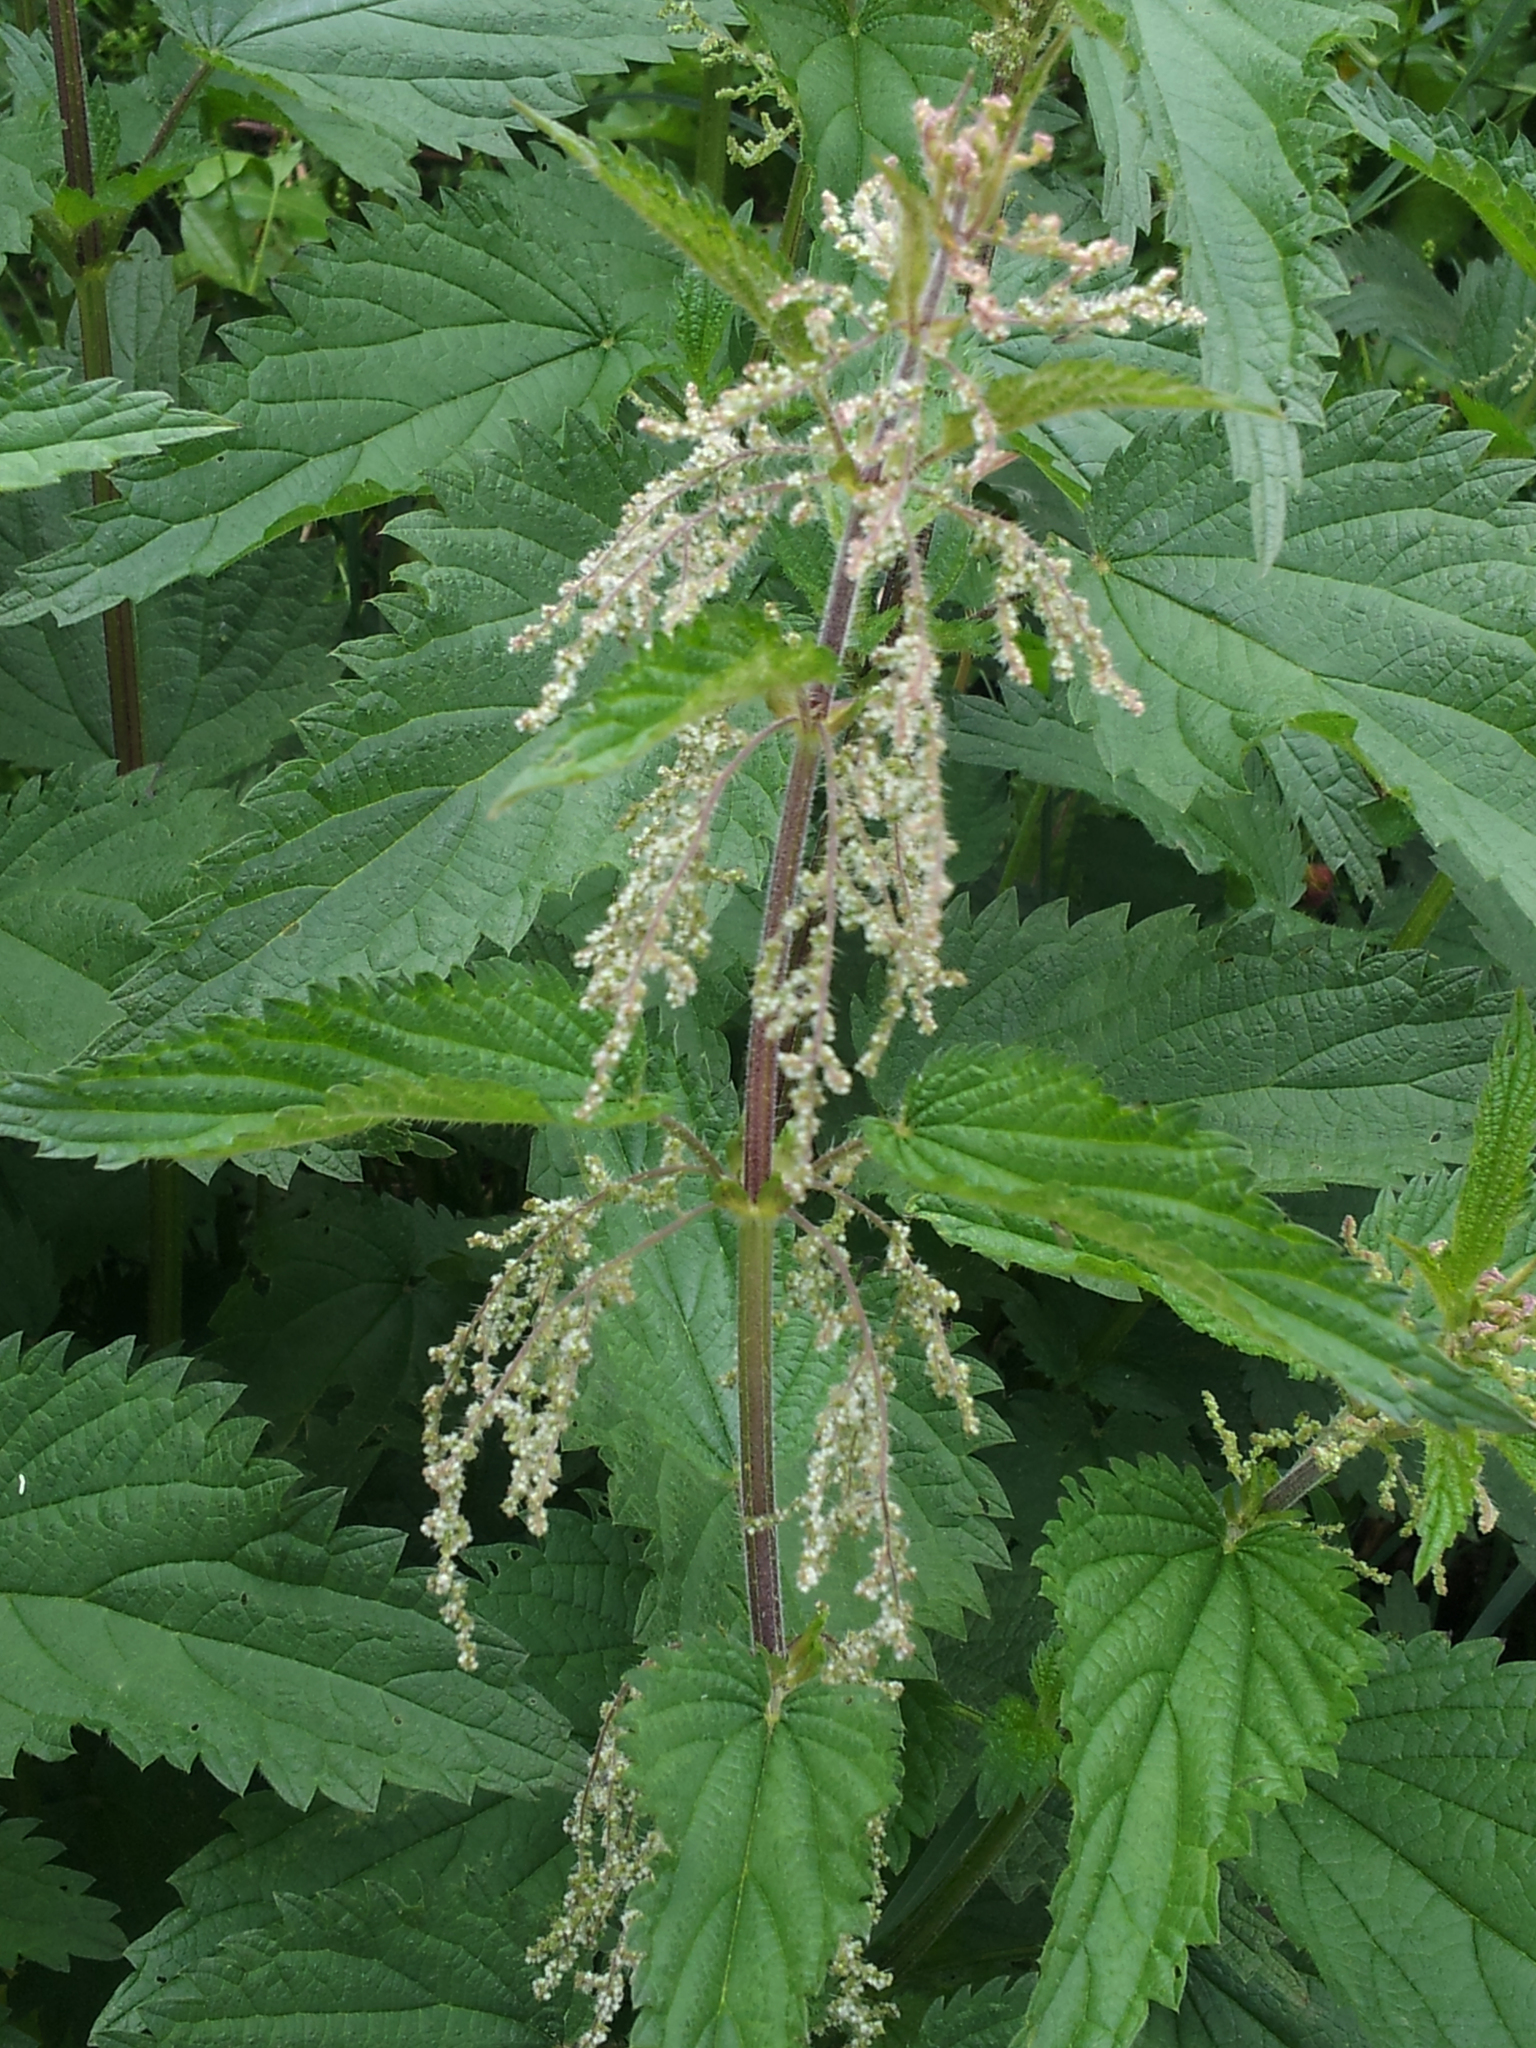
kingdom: Plantae
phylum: Tracheophyta
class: Magnoliopsida
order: Rosales
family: Urticaceae
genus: Urtica
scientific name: Urtica dioica
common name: Common nettle
